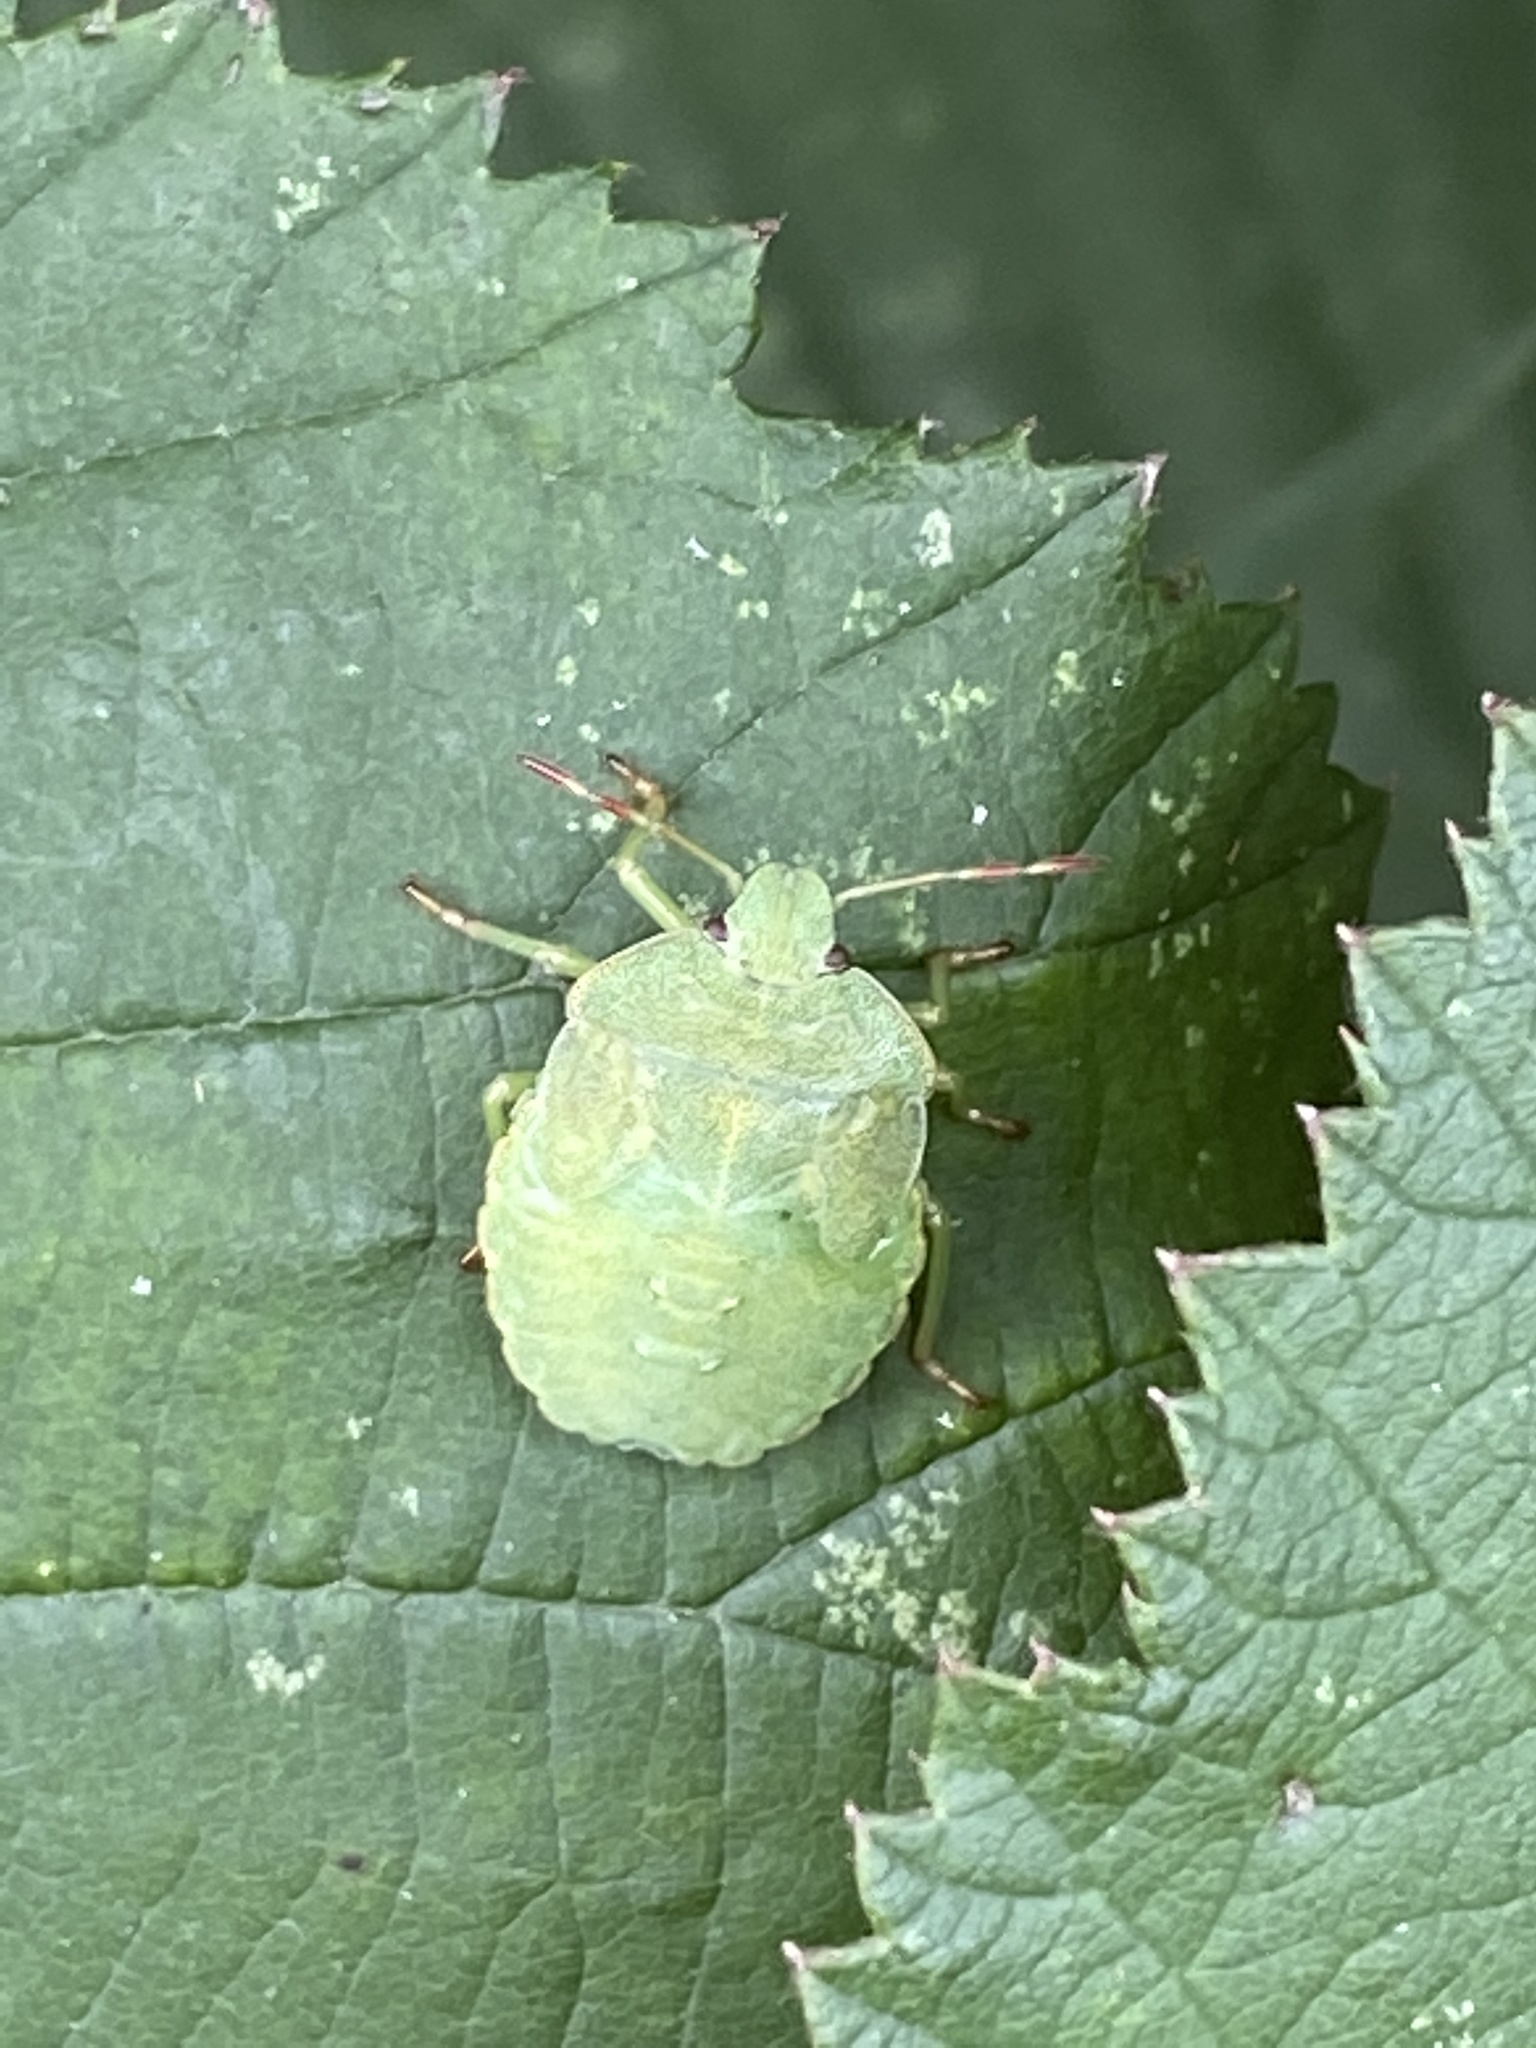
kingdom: Animalia
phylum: Arthropoda
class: Insecta
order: Hemiptera
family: Pentatomidae
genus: Palomena
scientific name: Palomena prasina
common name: Green shieldbug
